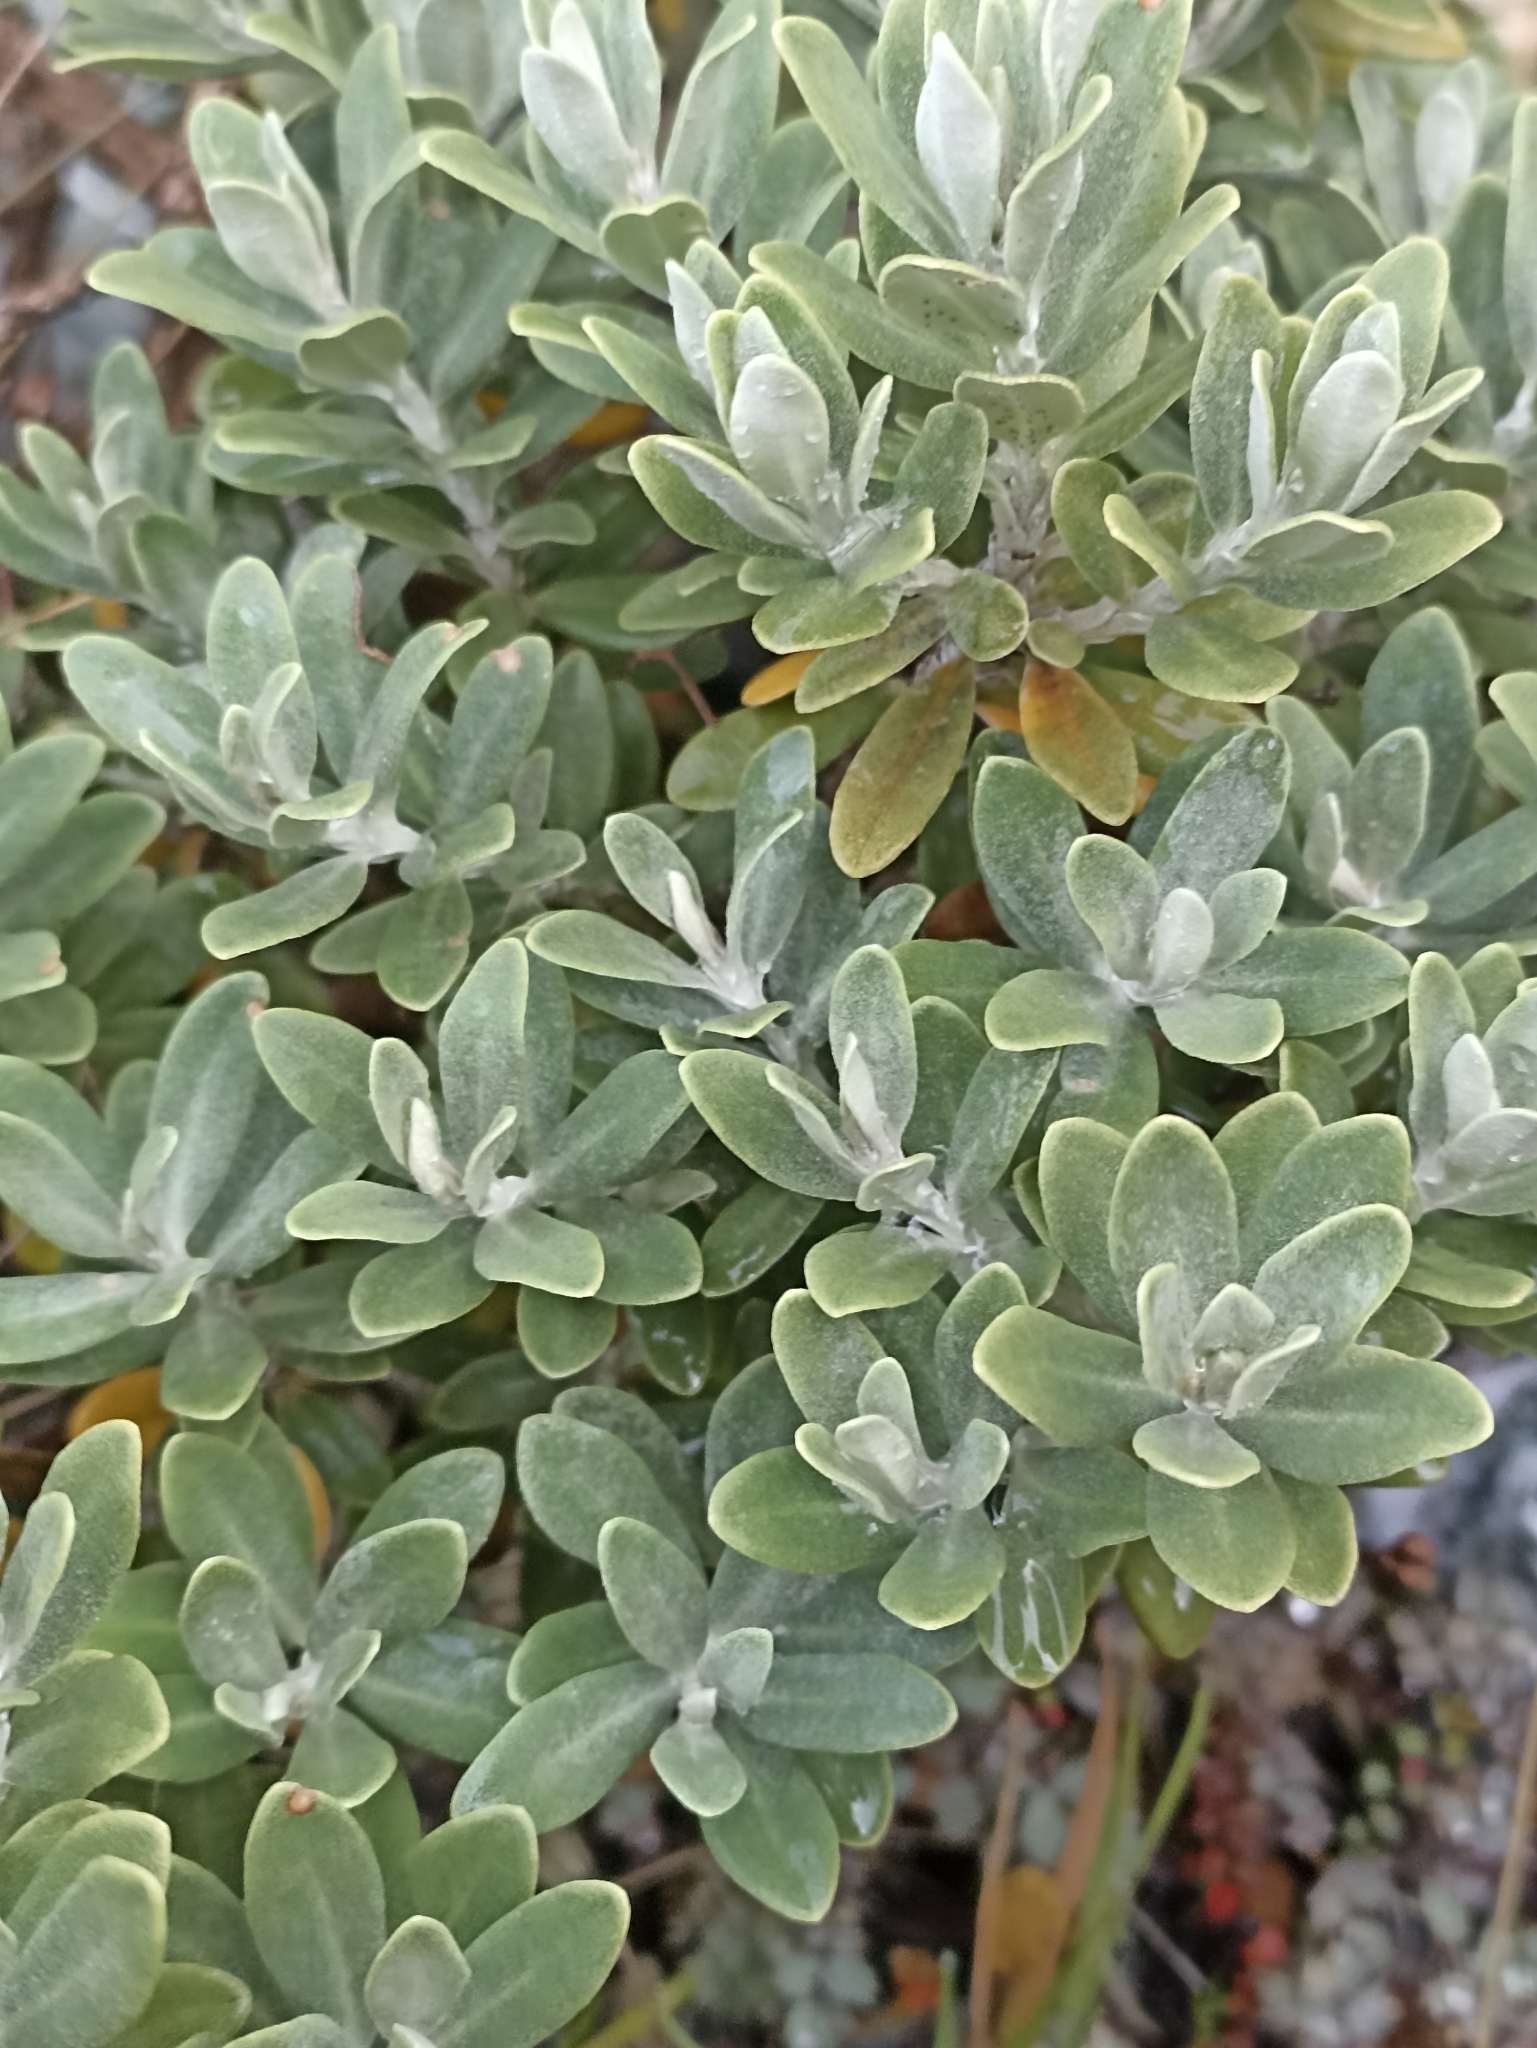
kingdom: Plantae
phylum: Tracheophyta
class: Magnoliopsida
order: Asterales
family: Asteraceae
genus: Olearia
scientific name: Olearia moschata
